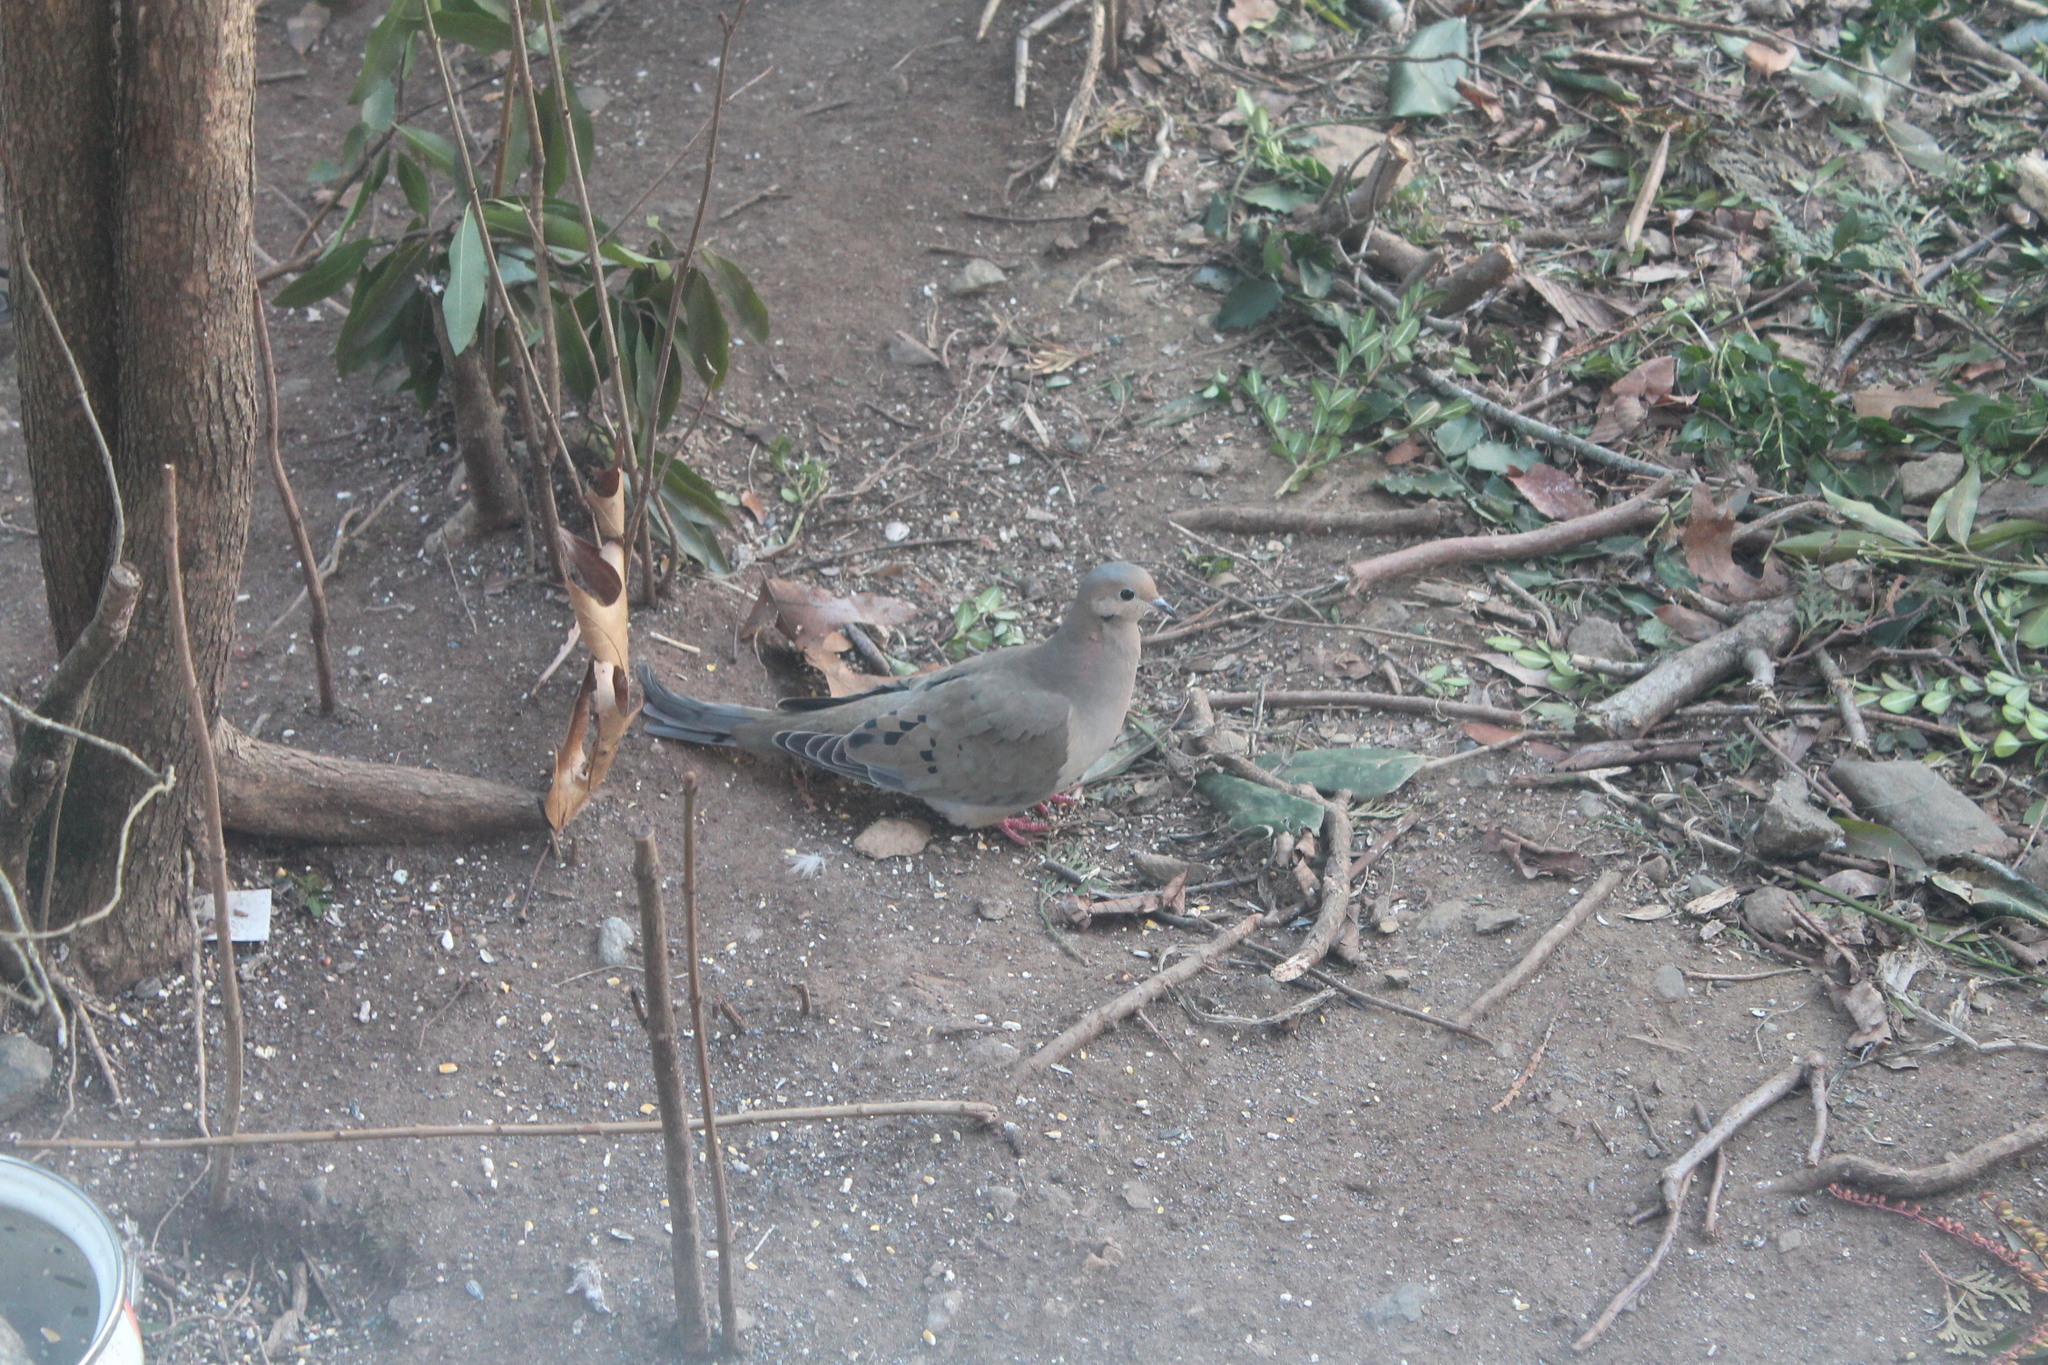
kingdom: Animalia
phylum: Chordata
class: Aves
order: Columbiformes
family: Columbidae
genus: Zenaida
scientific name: Zenaida macroura
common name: Mourning dove
